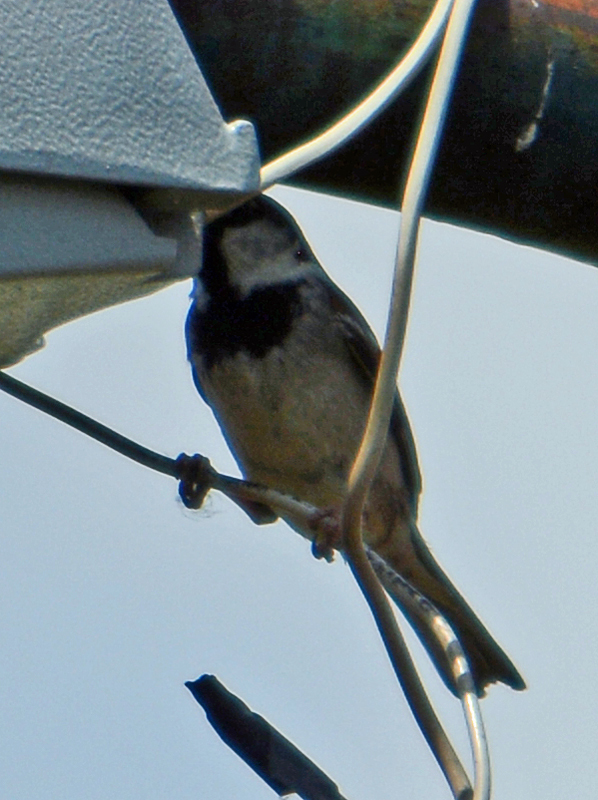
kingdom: Animalia
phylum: Chordata
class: Aves
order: Passeriformes
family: Passeridae
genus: Passer
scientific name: Passer domesticus
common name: House sparrow
